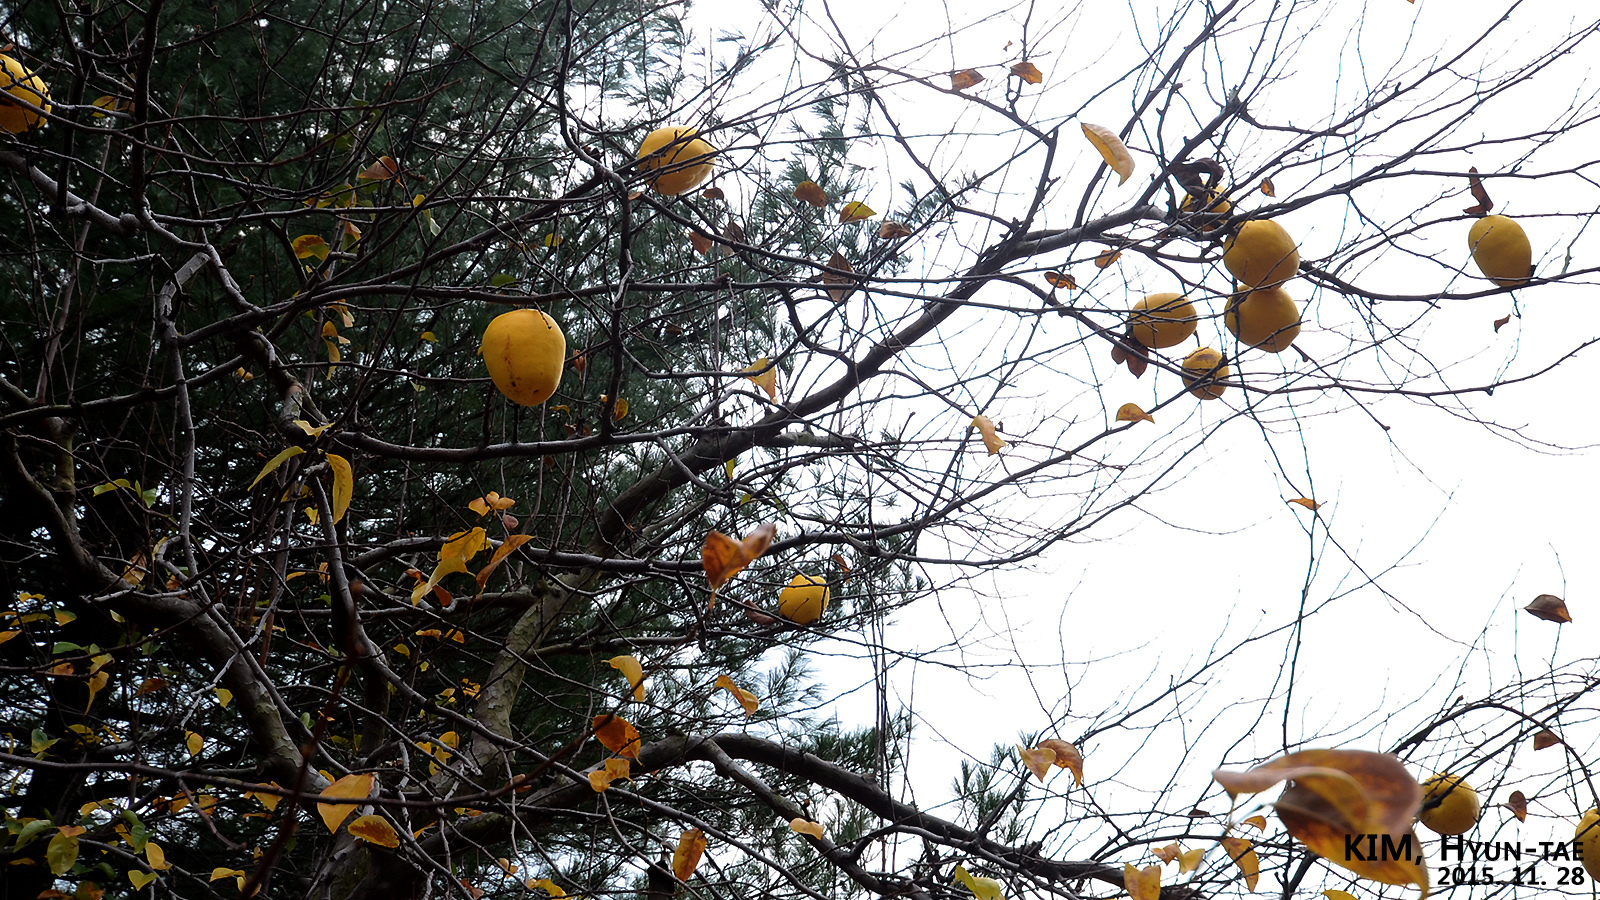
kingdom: Plantae
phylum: Tracheophyta
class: Magnoliopsida
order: Rosales
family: Rosaceae
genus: Pseudocydonia
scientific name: Pseudocydonia sinensis
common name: Chinese-quince
